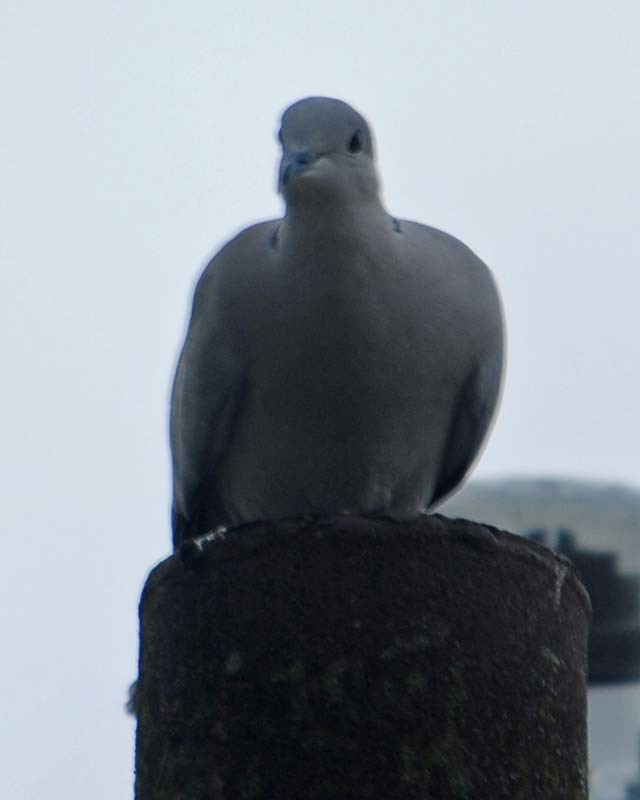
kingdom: Animalia
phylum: Chordata
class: Aves
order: Columbiformes
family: Columbidae
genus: Streptopelia
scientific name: Streptopelia decaocto
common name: Eurasian collared dove
